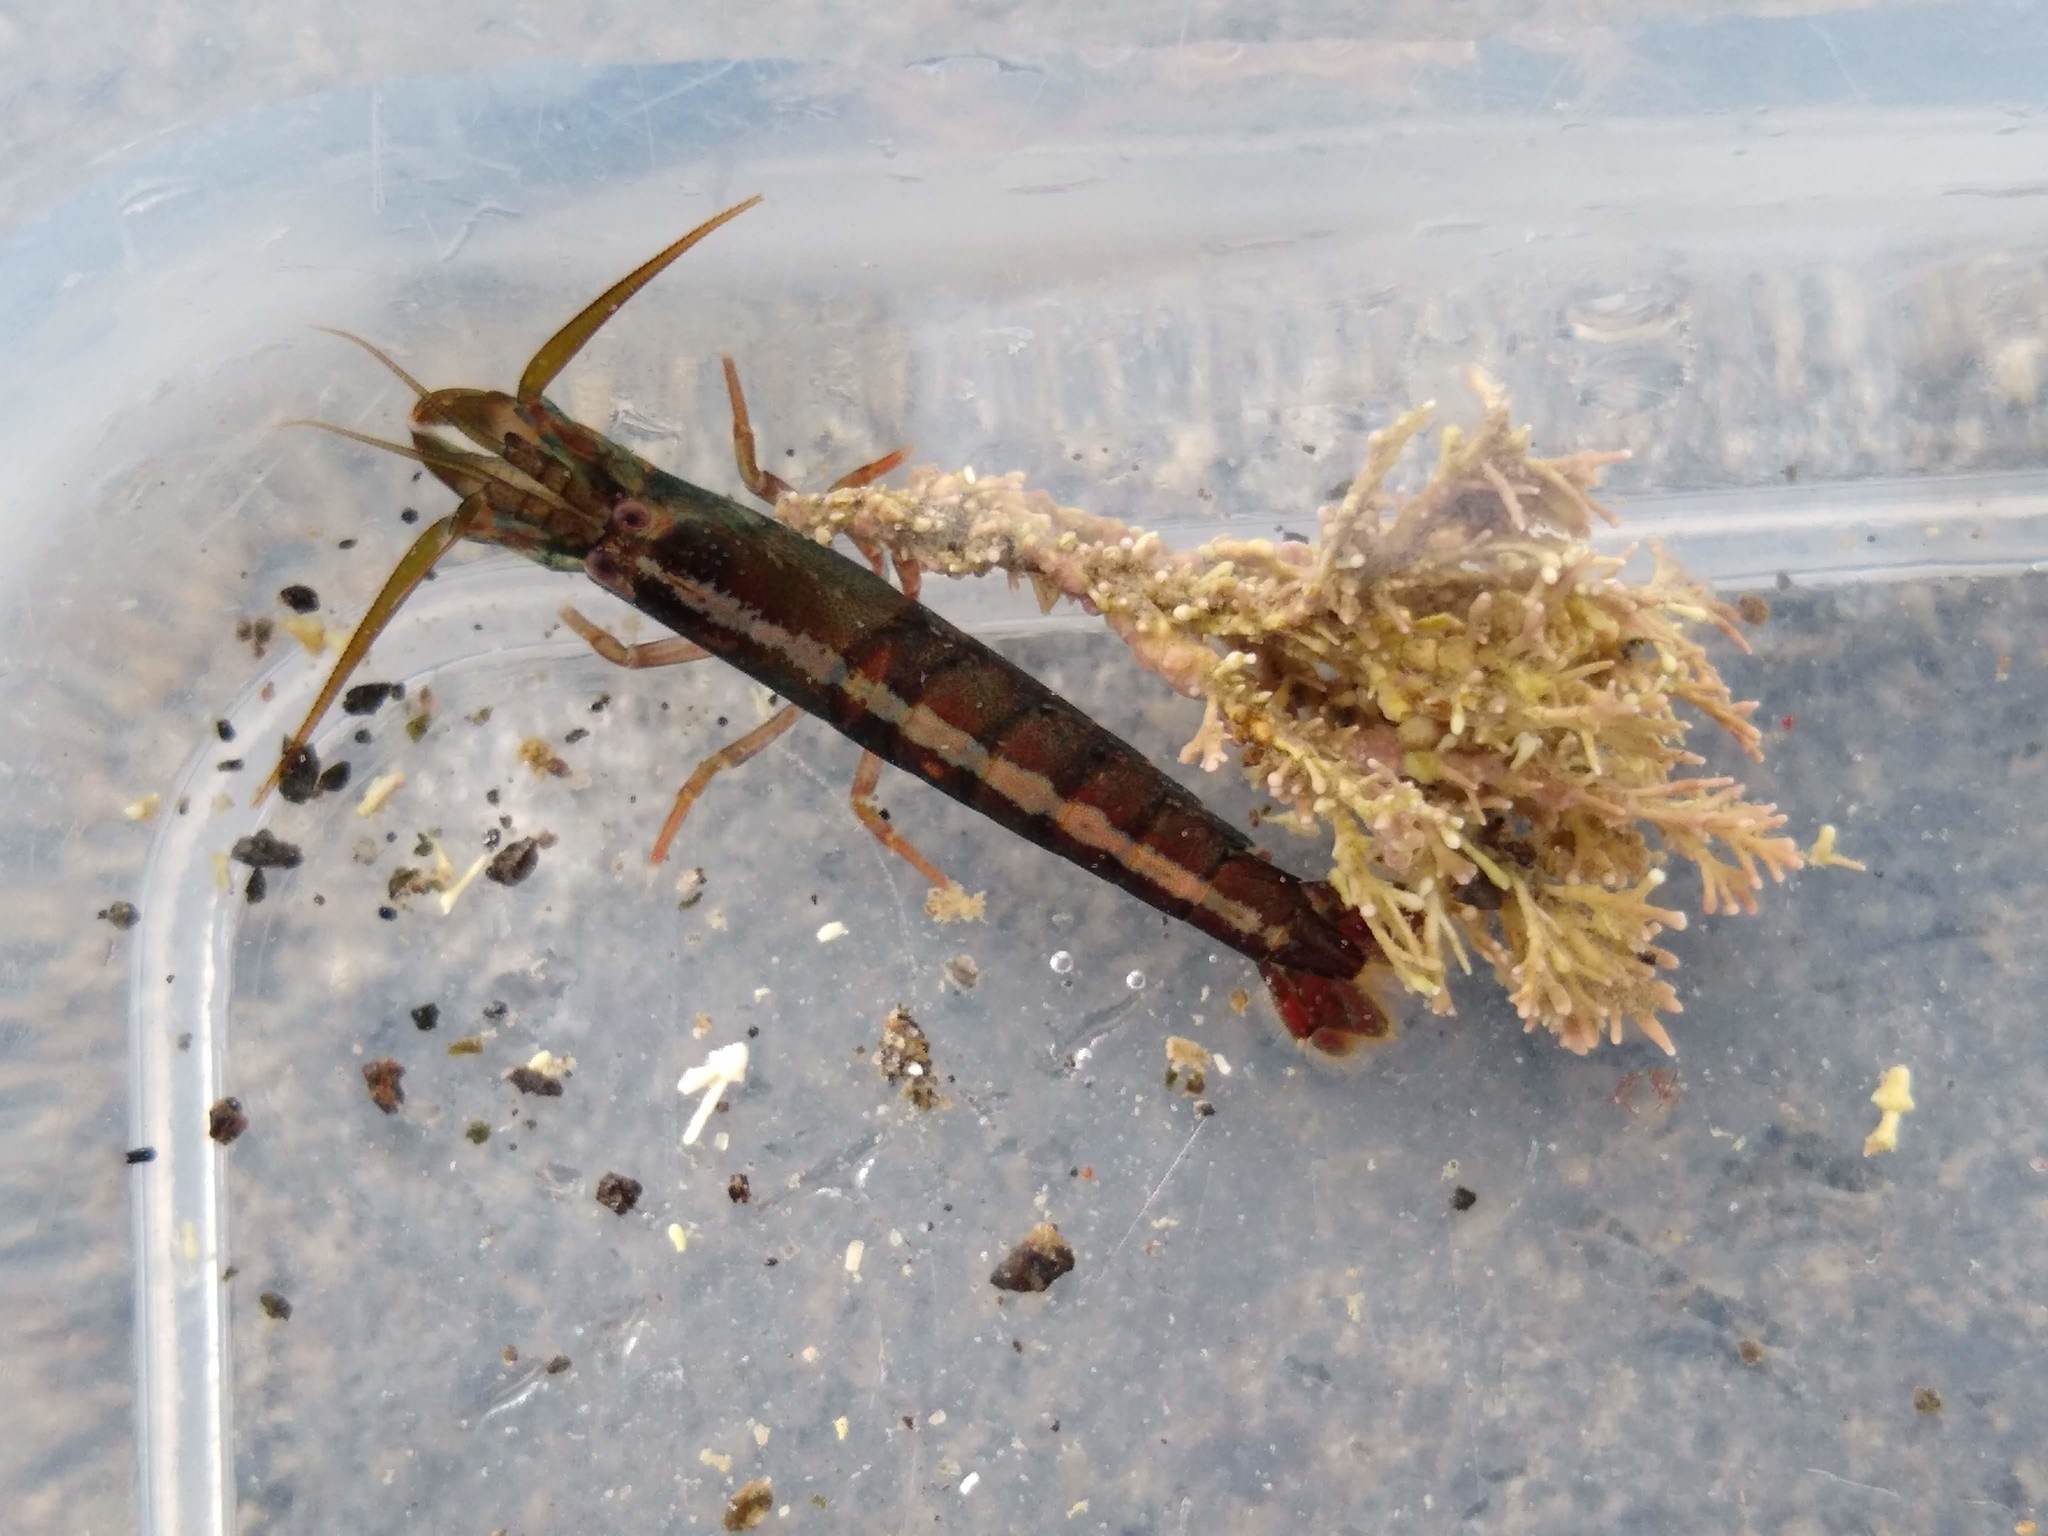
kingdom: Animalia
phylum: Arthropoda
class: Malacostraca
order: Decapoda
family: Alpheidae
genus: Betaeopsis
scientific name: Betaeopsis aequimanus
